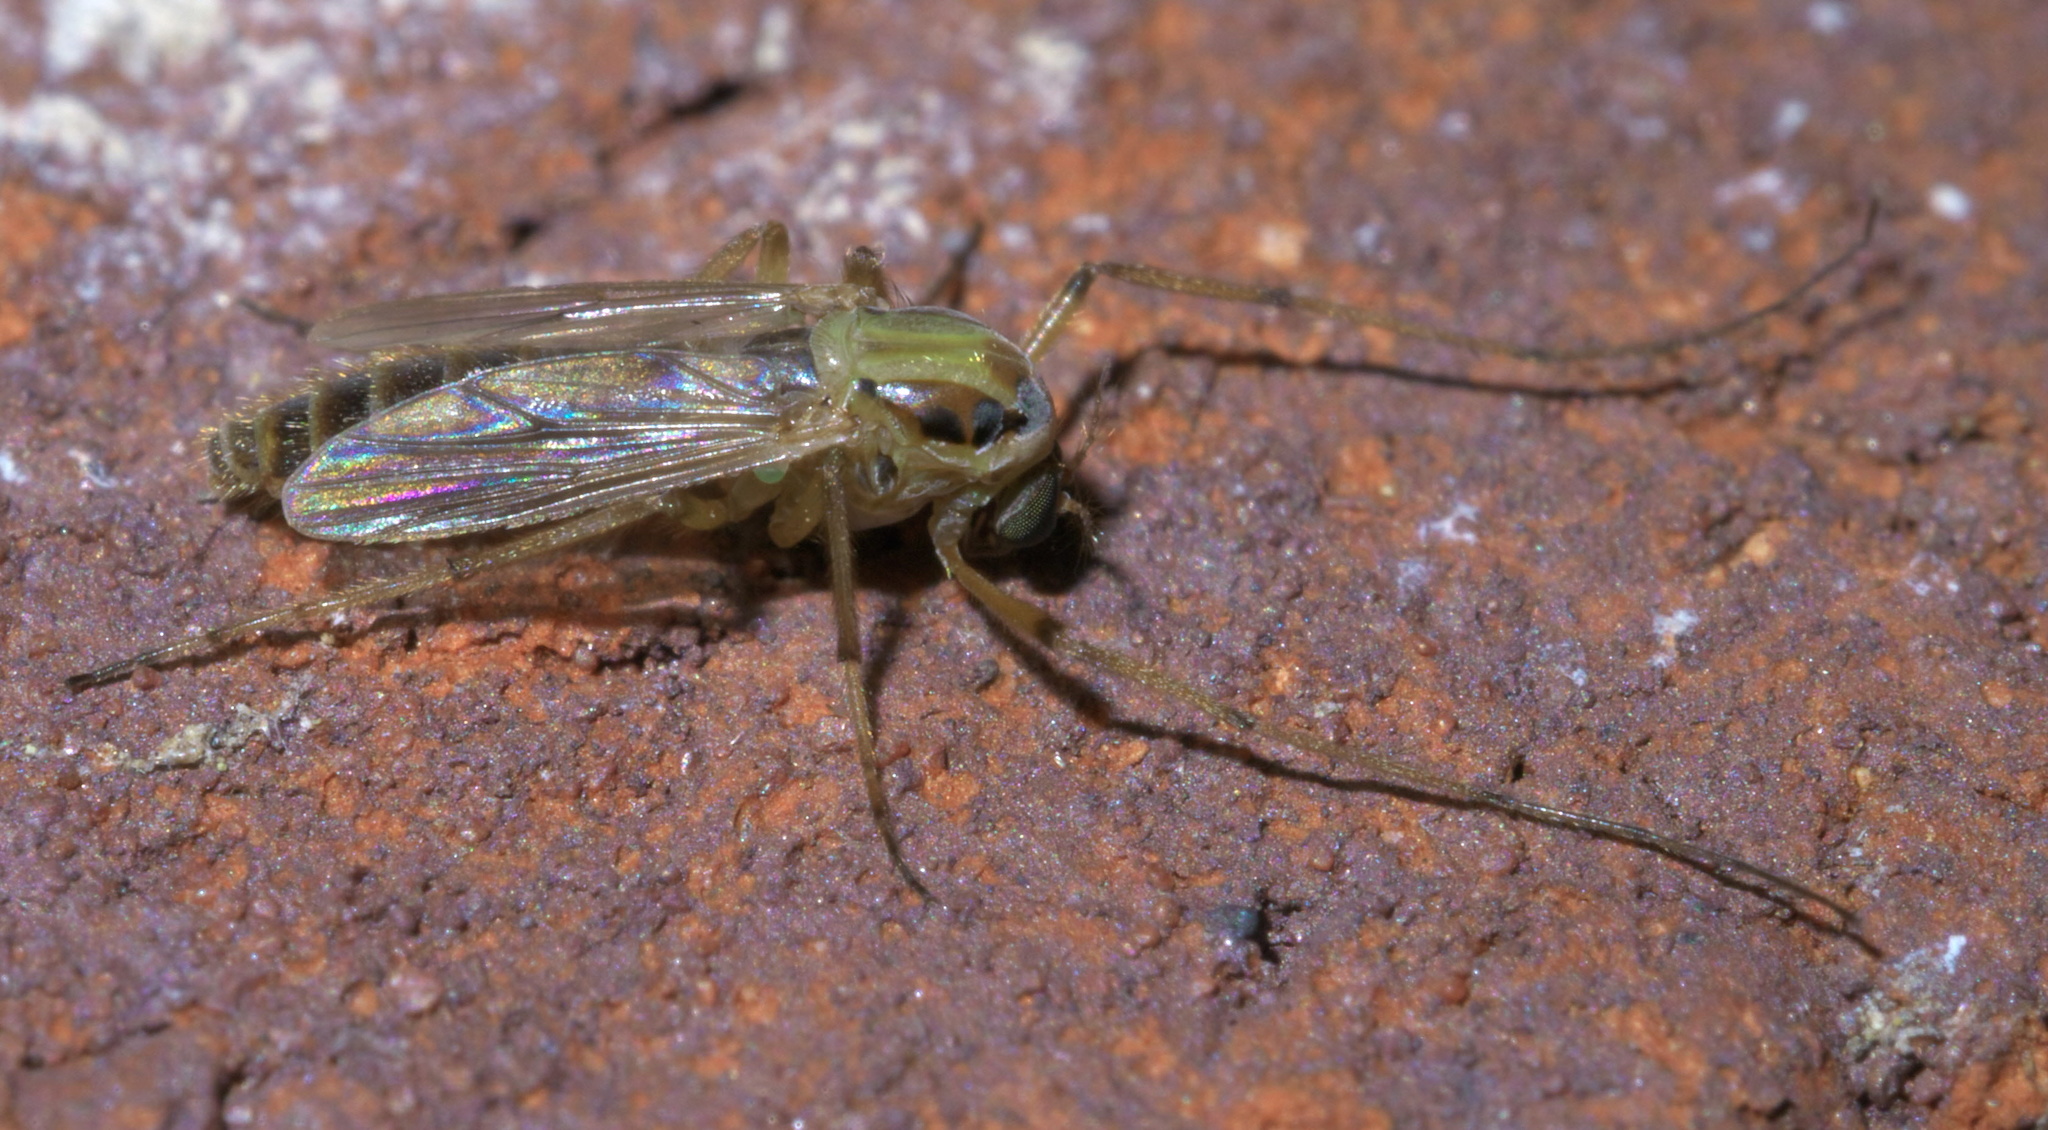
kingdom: Animalia
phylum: Arthropoda
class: Insecta
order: Diptera
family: Chironomidae
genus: Goeldichironomus
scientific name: Goeldichironomus carus
